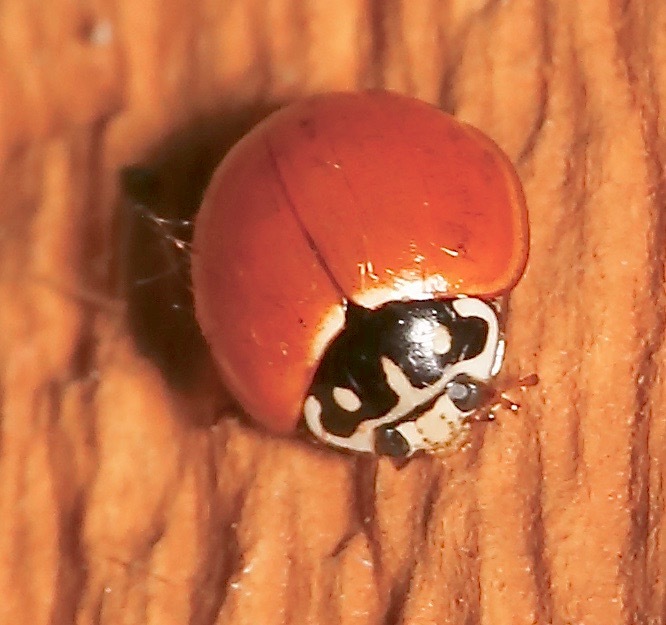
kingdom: Animalia
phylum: Arthropoda
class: Insecta
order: Coleoptera
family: Coccinellidae
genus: Cycloneda
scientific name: Cycloneda sanguinea
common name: Ladybird beetle
